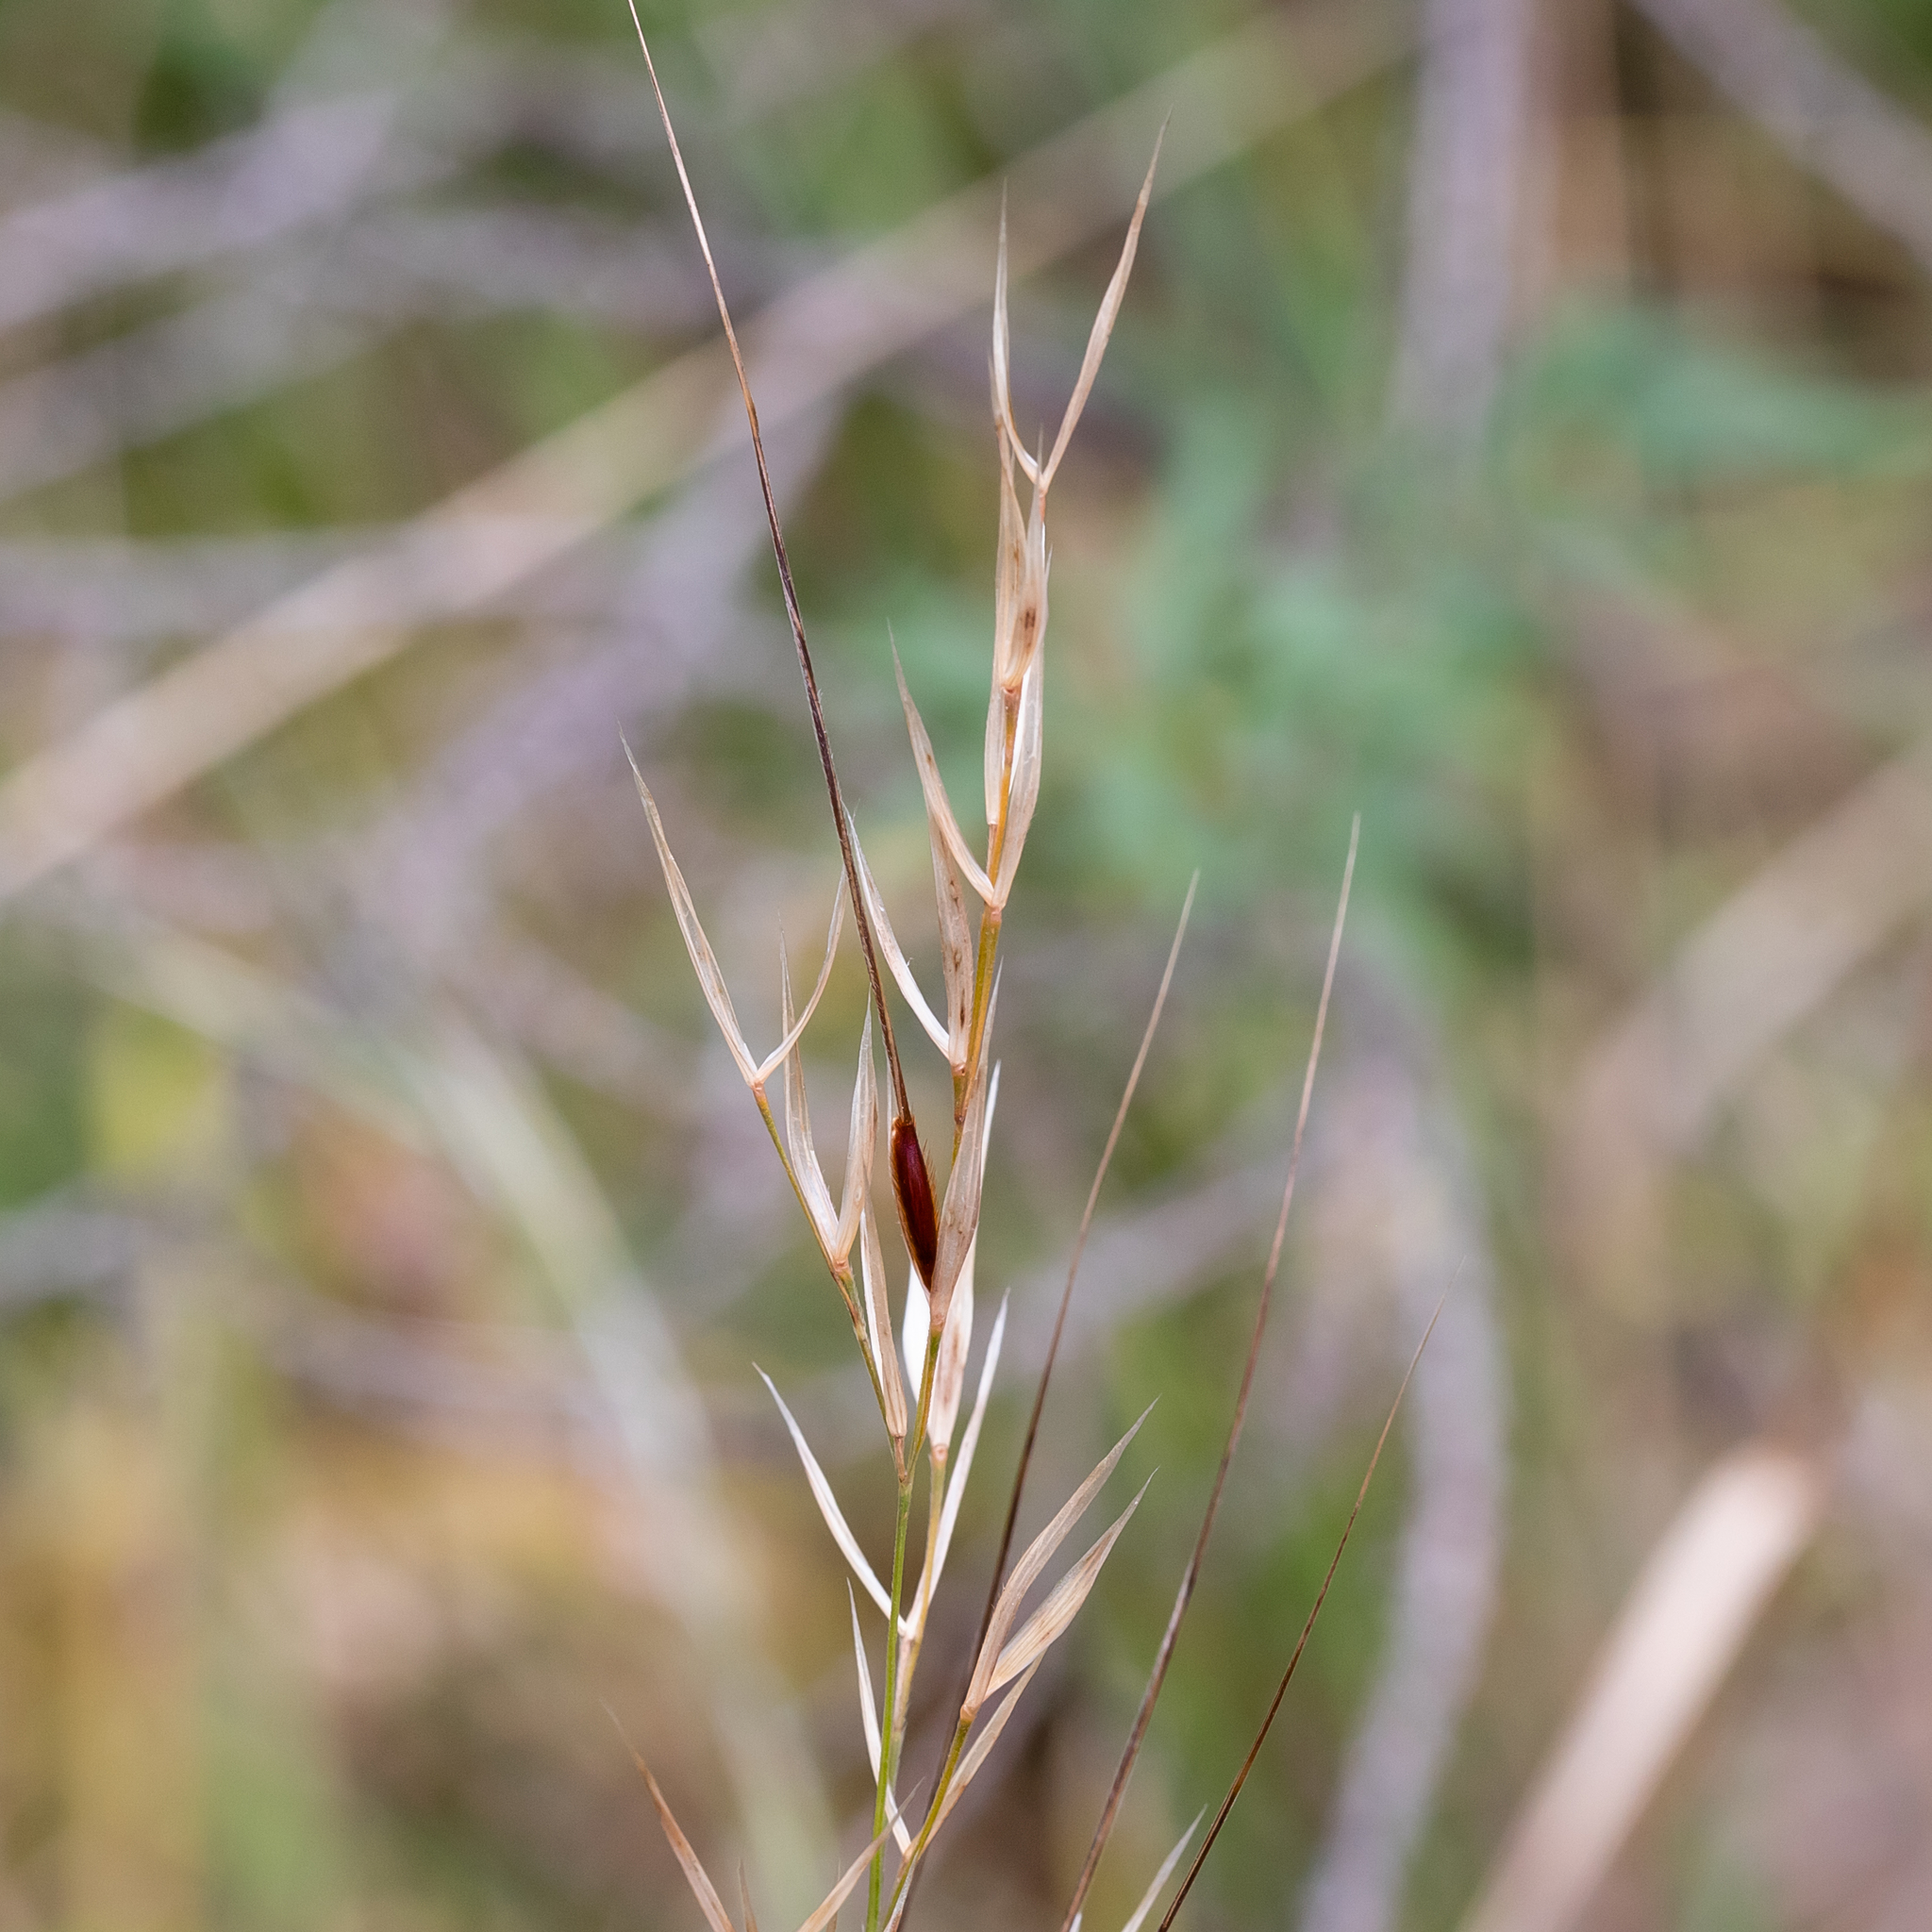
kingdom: Plantae
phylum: Tracheophyta
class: Liliopsida
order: Poales
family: Poaceae
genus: Austrostipa
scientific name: Austrostipa flavescens
